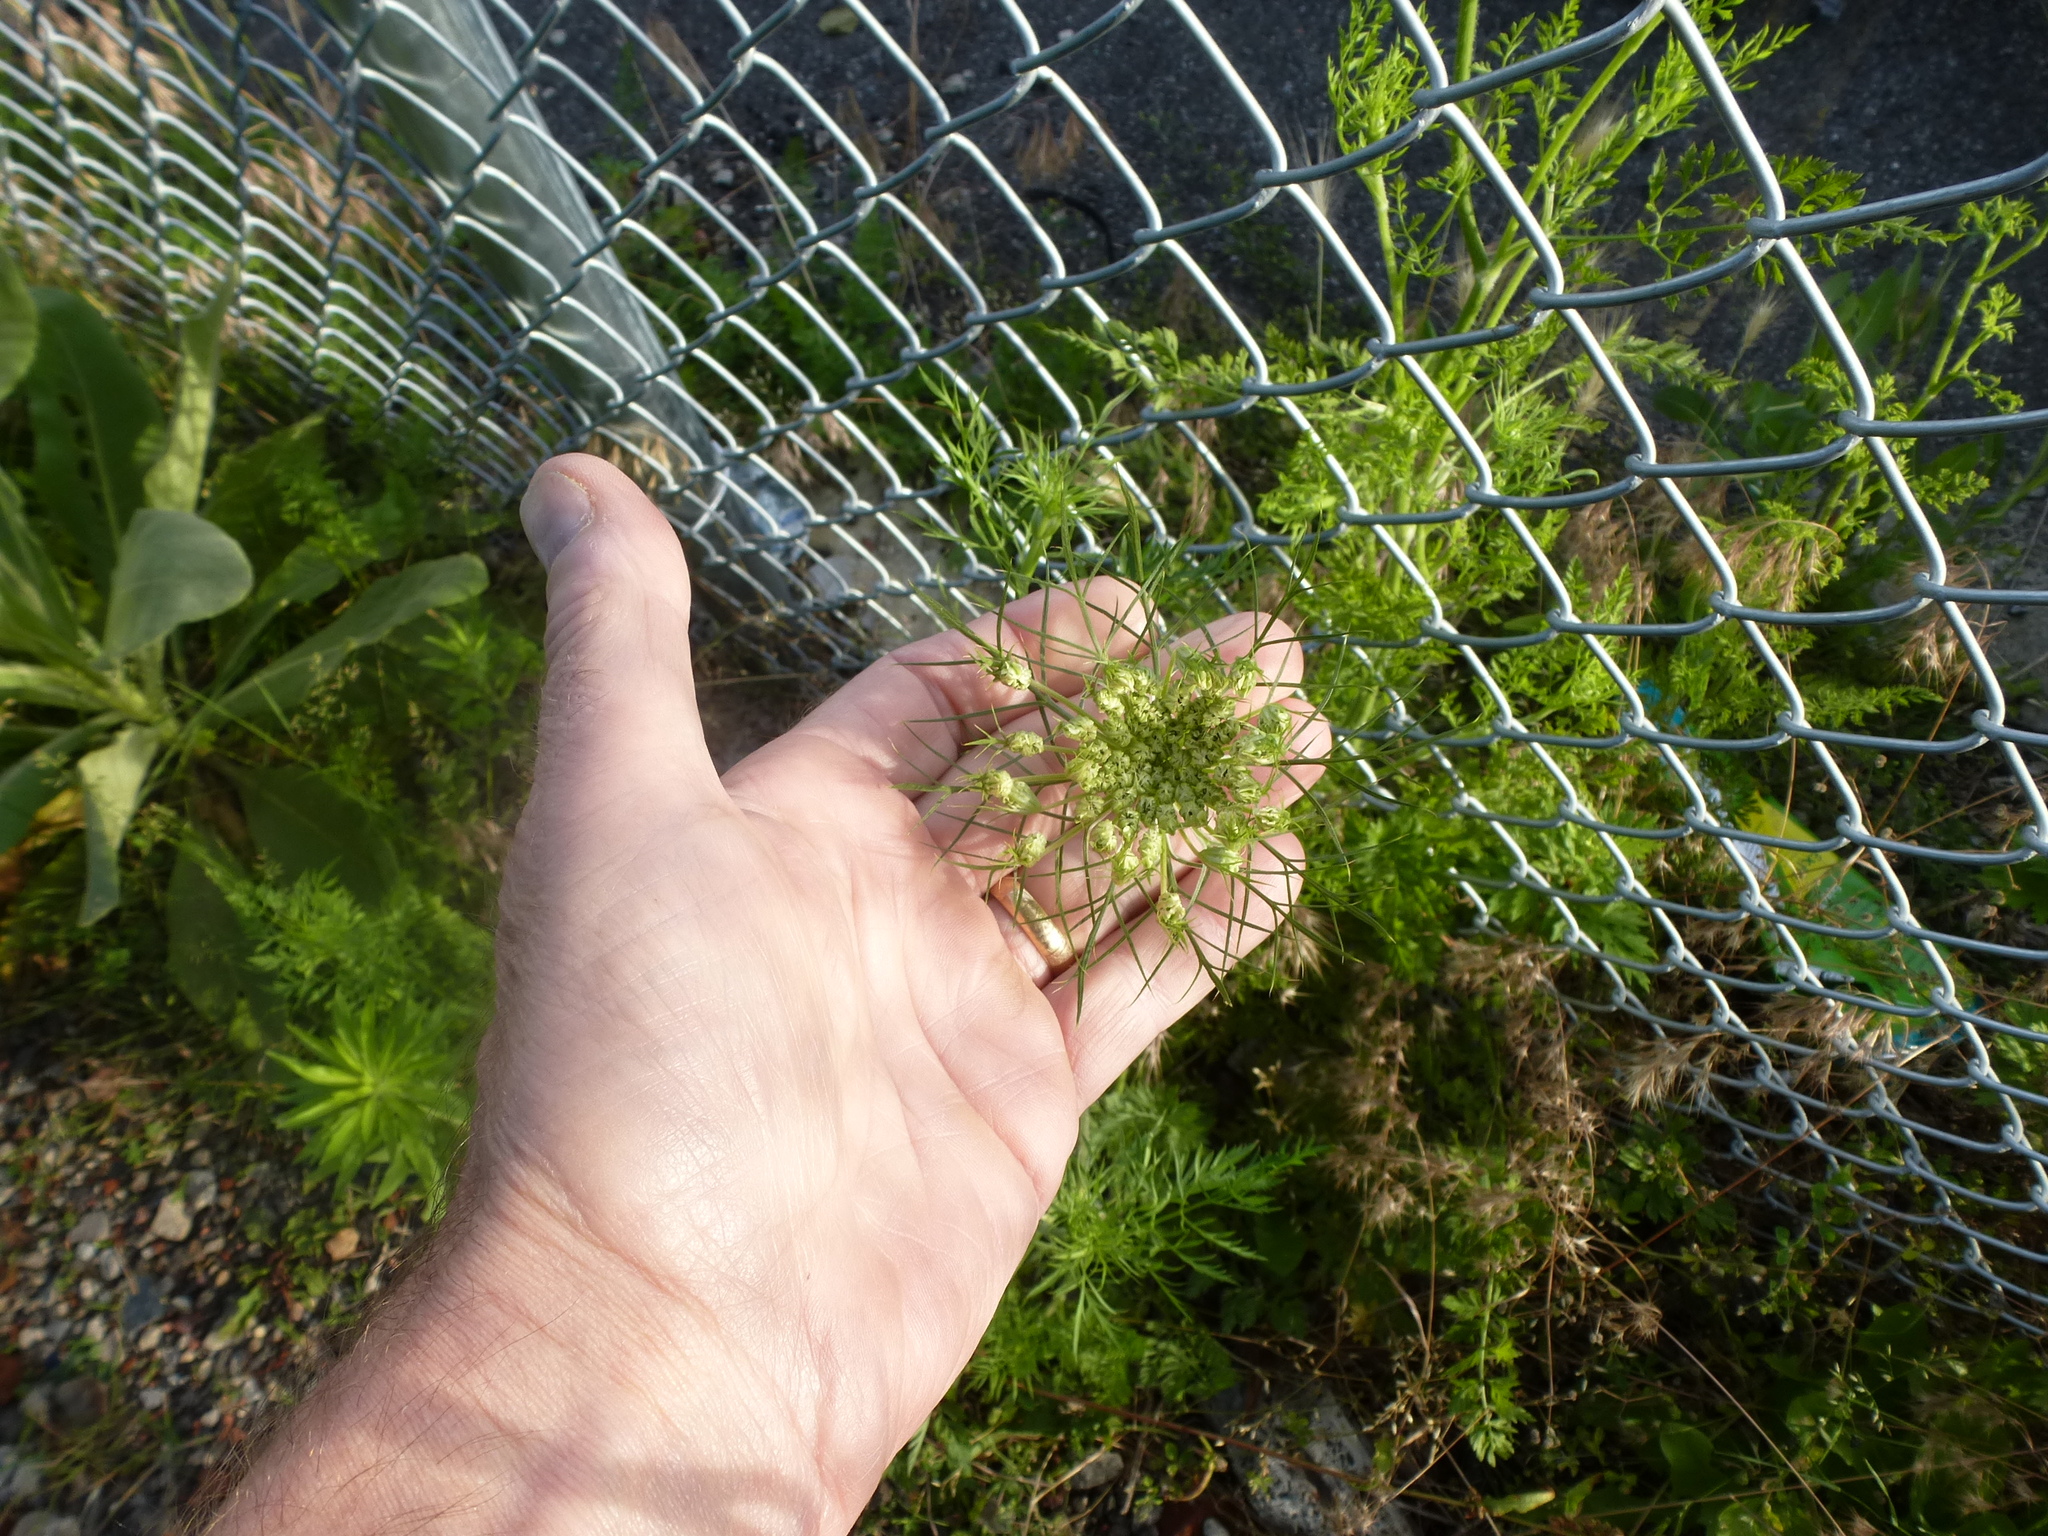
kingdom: Plantae
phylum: Tracheophyta
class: Magnoliopsida
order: Apiales
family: Apiaceae
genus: Daucus
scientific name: Daucus carota
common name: Wild carrot
